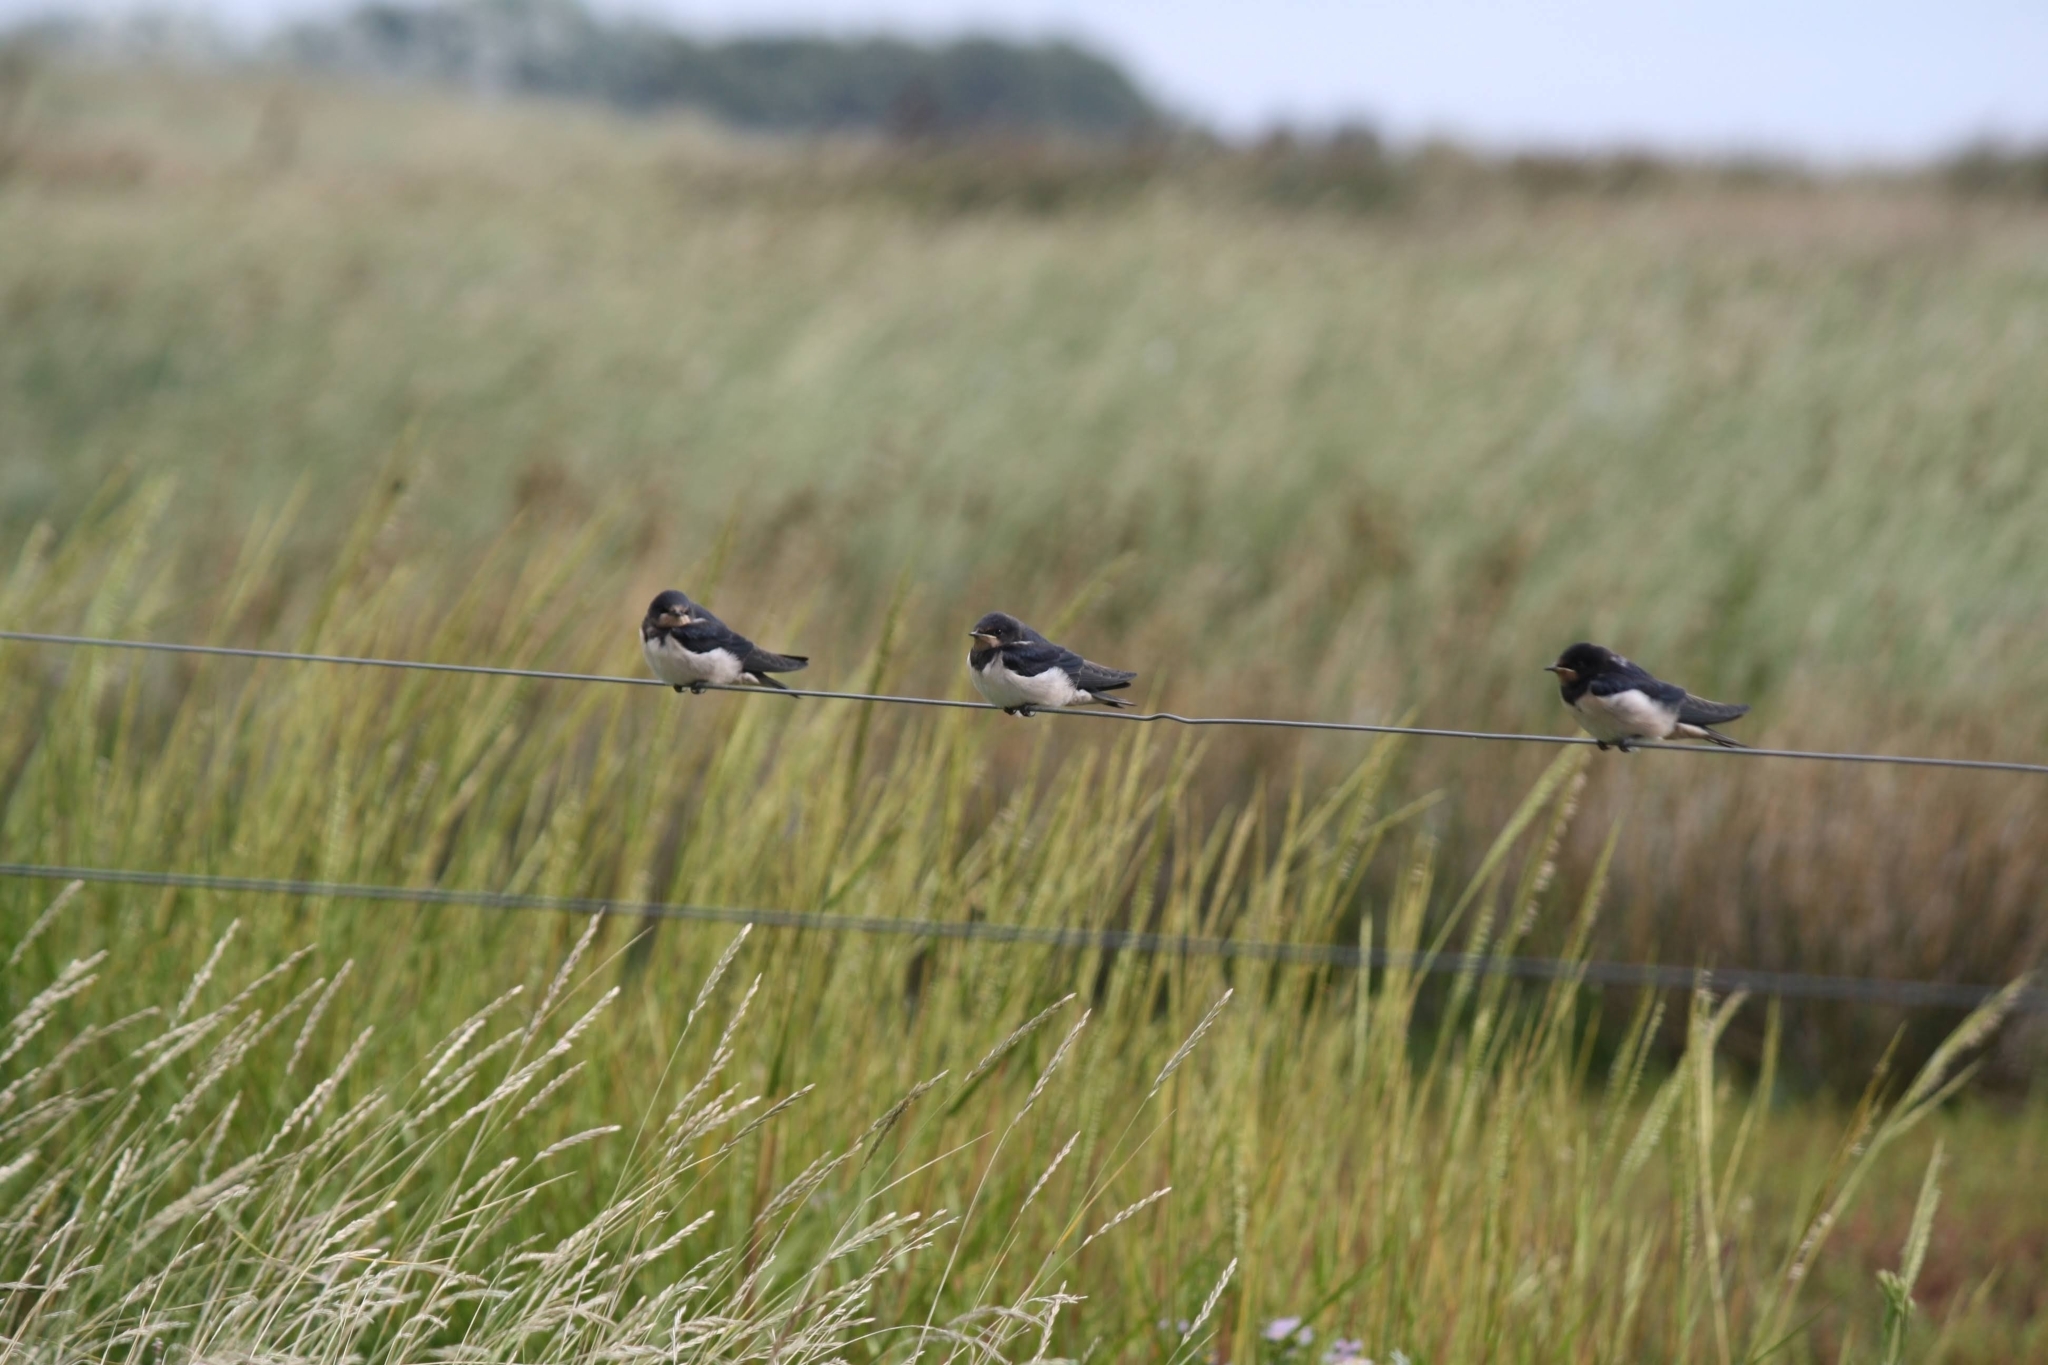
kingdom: Animalia
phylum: Chordata
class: Aves
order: Passeriformes
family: Hirundinidae
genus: Hirundo
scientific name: Hirundo rustica
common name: Barn swallow
